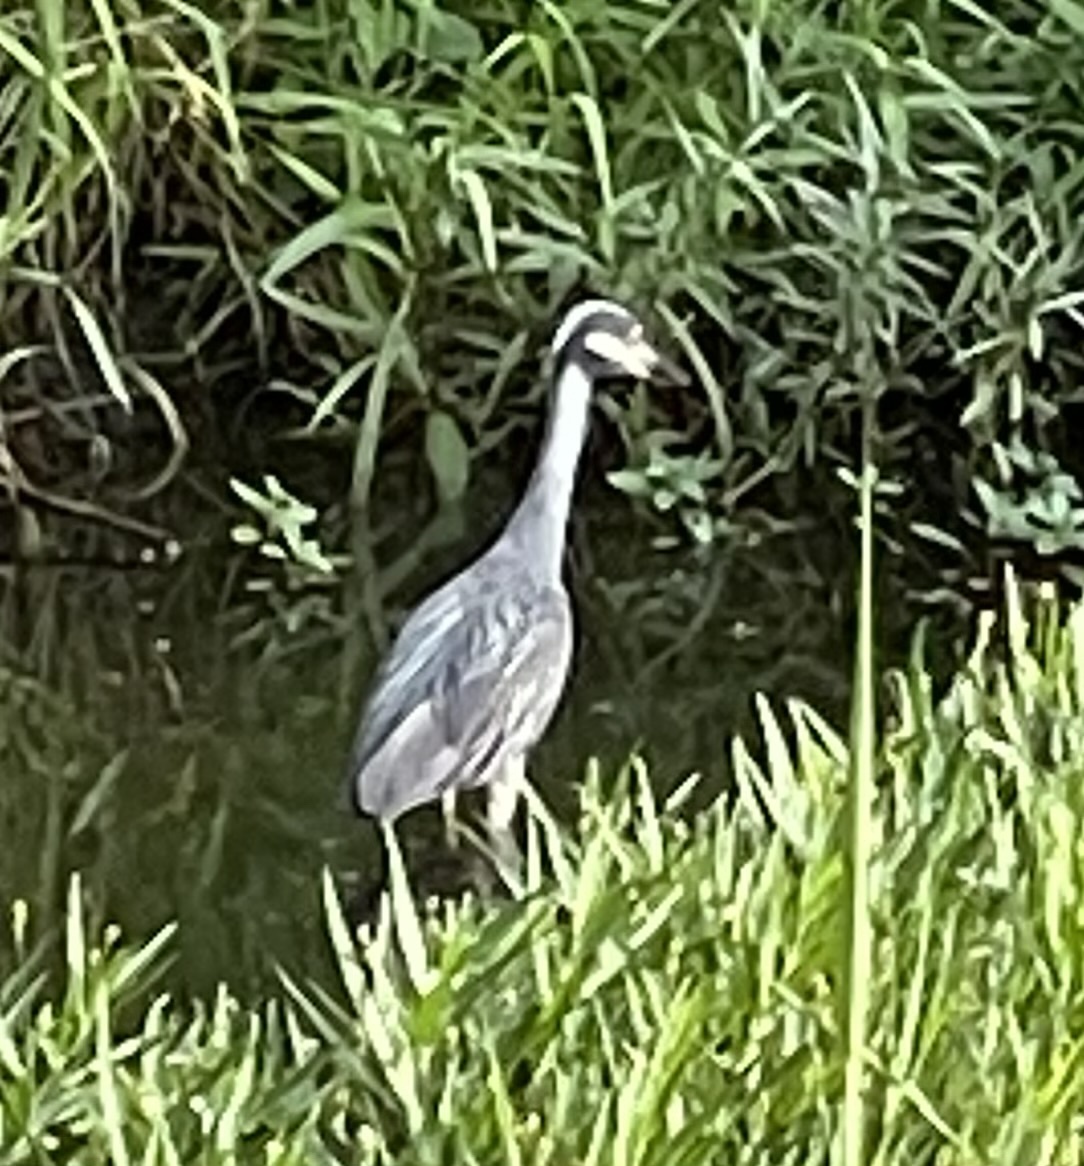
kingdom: Animalia
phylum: Chordata
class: Aves
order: Pelecaniformes
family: Ardeidae
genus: Nyctanassa
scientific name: Nyctanassa violacea
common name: Yellow-crowned night heron
